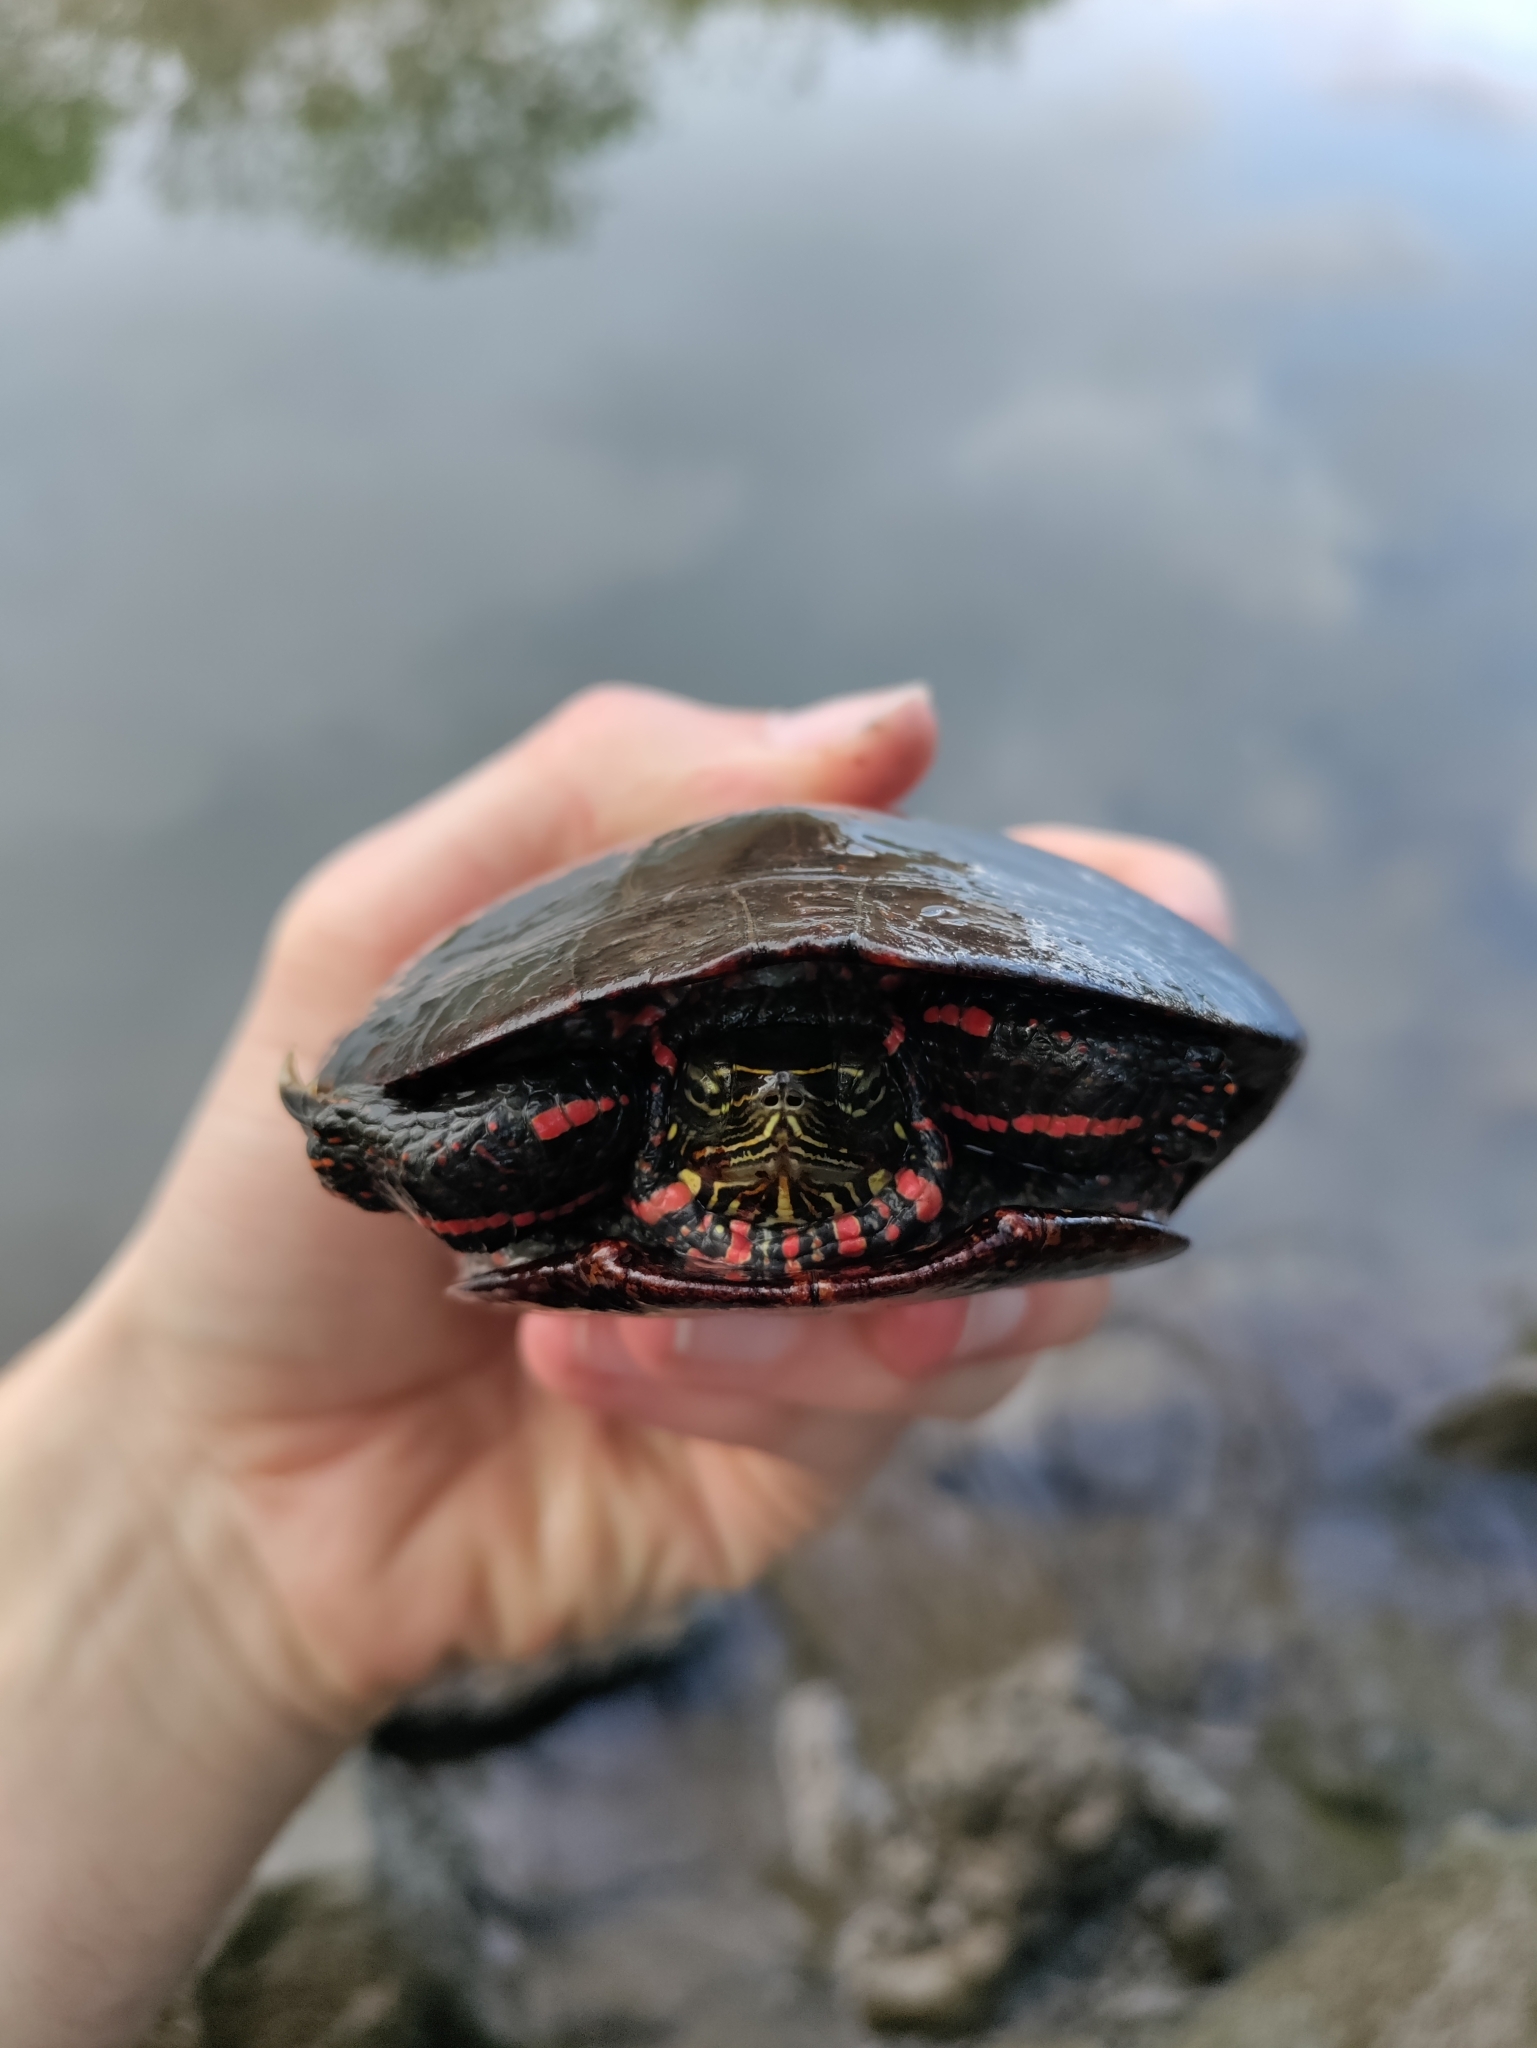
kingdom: Animalia
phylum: Chordata
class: Testudines
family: Emydidae
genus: Chrysemys
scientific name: Chrysemys picta
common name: Painted turtle
